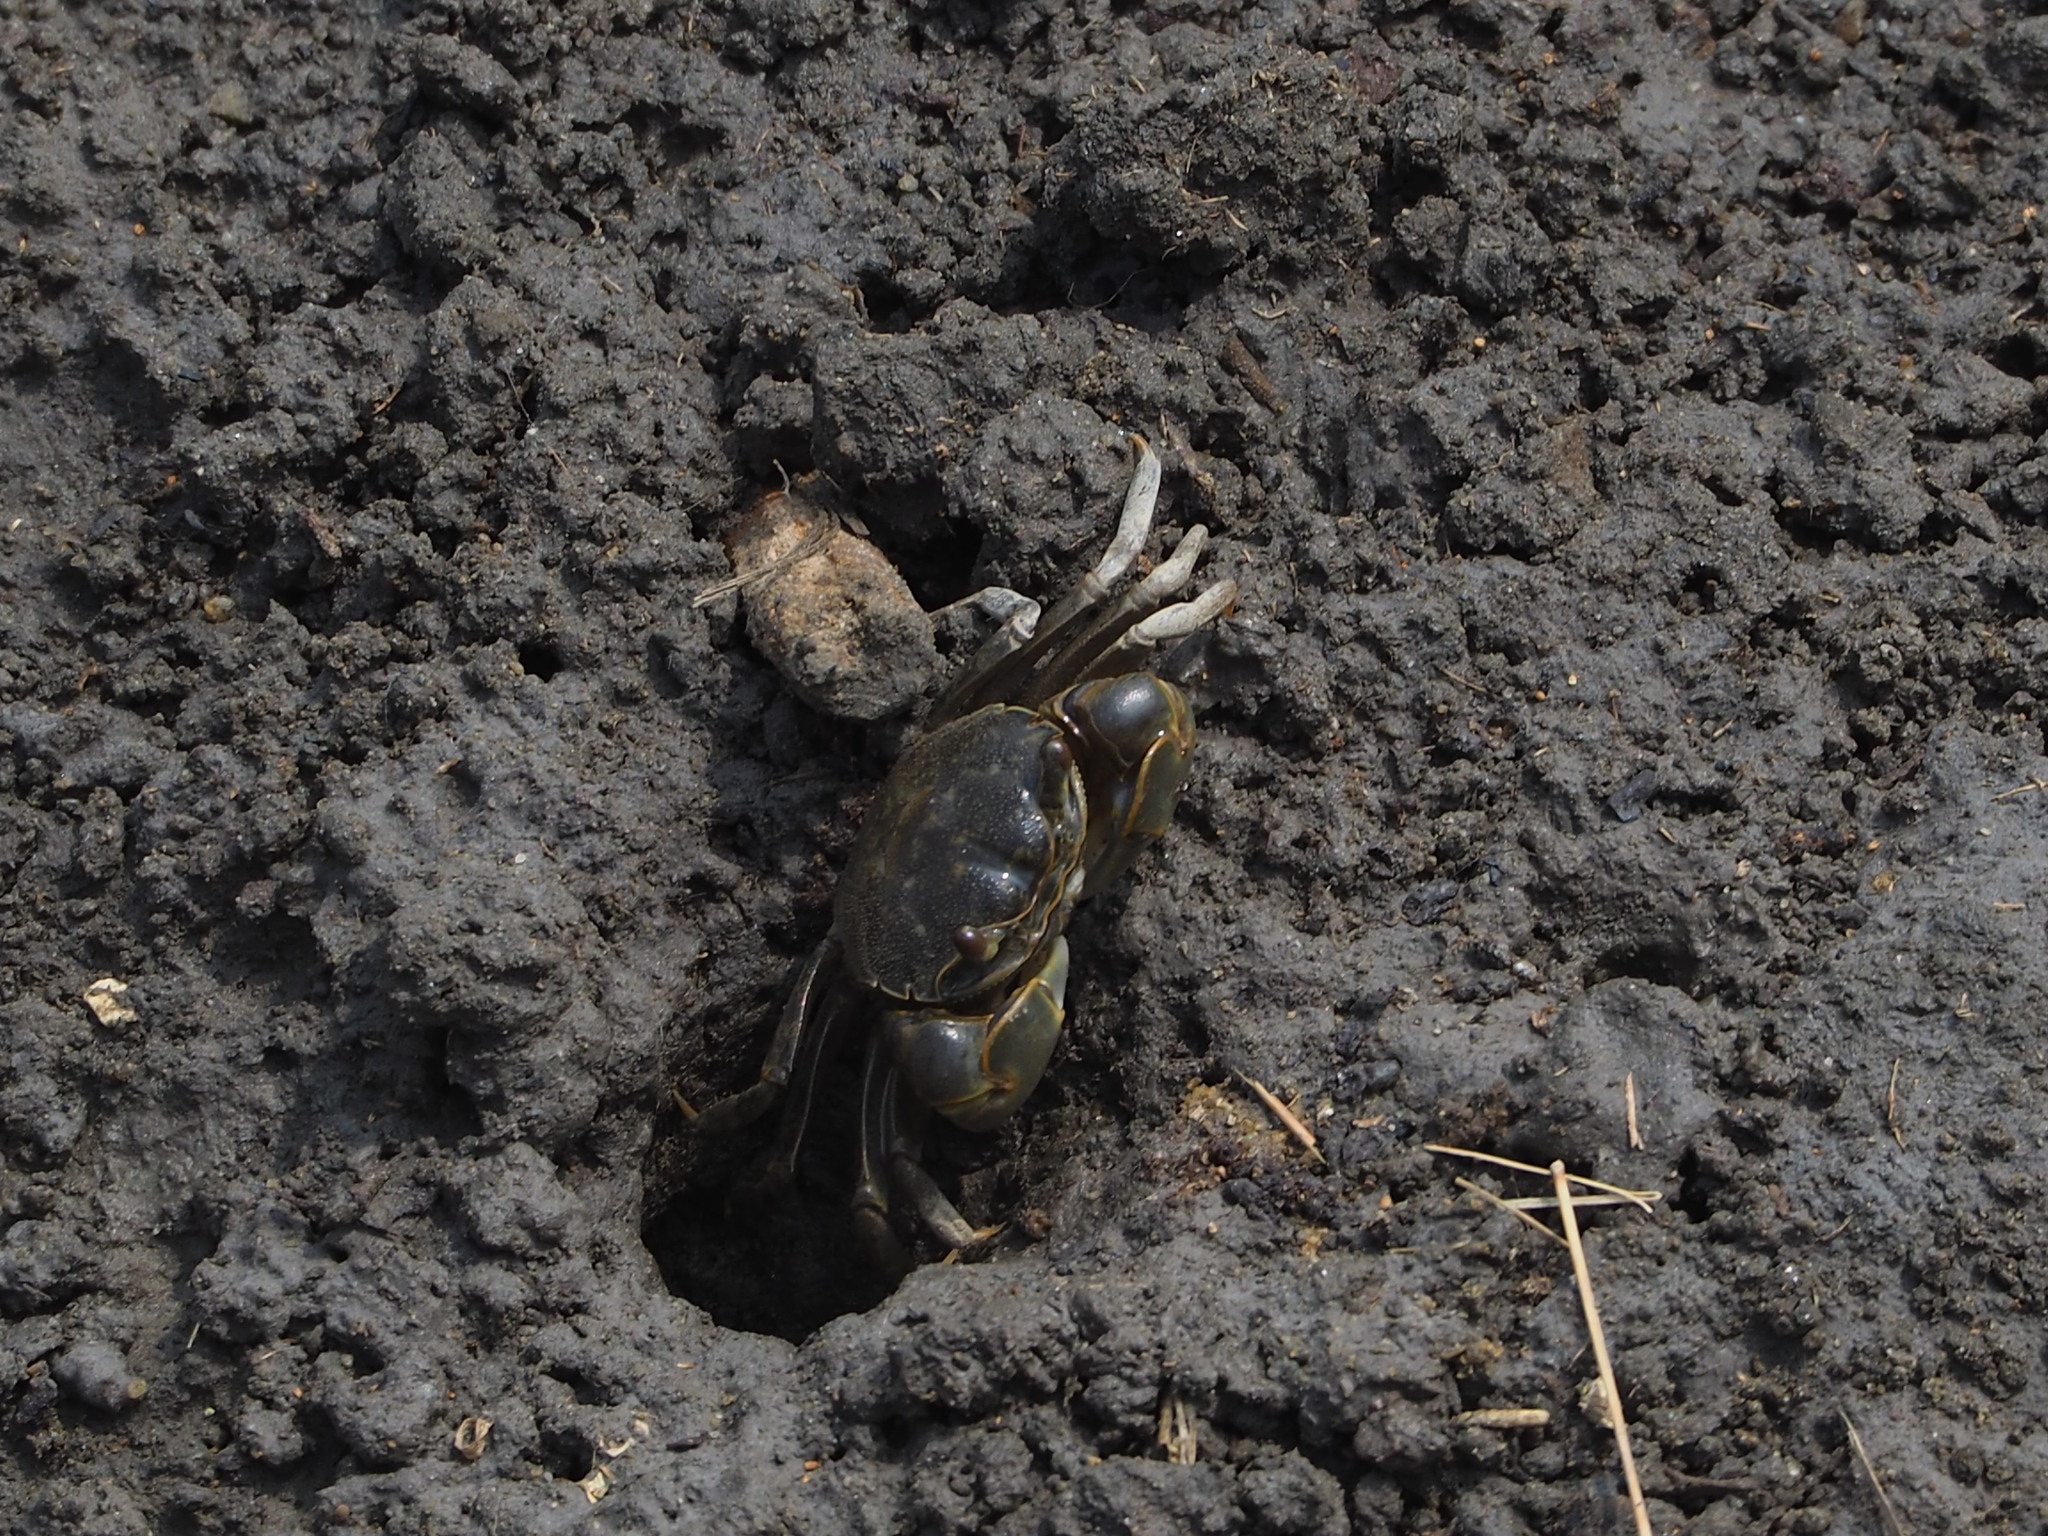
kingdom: Animalia
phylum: Arthropoda
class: Malacostraca
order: Decapoda
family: Varunidae
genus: Helice
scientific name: Helice formosensis
